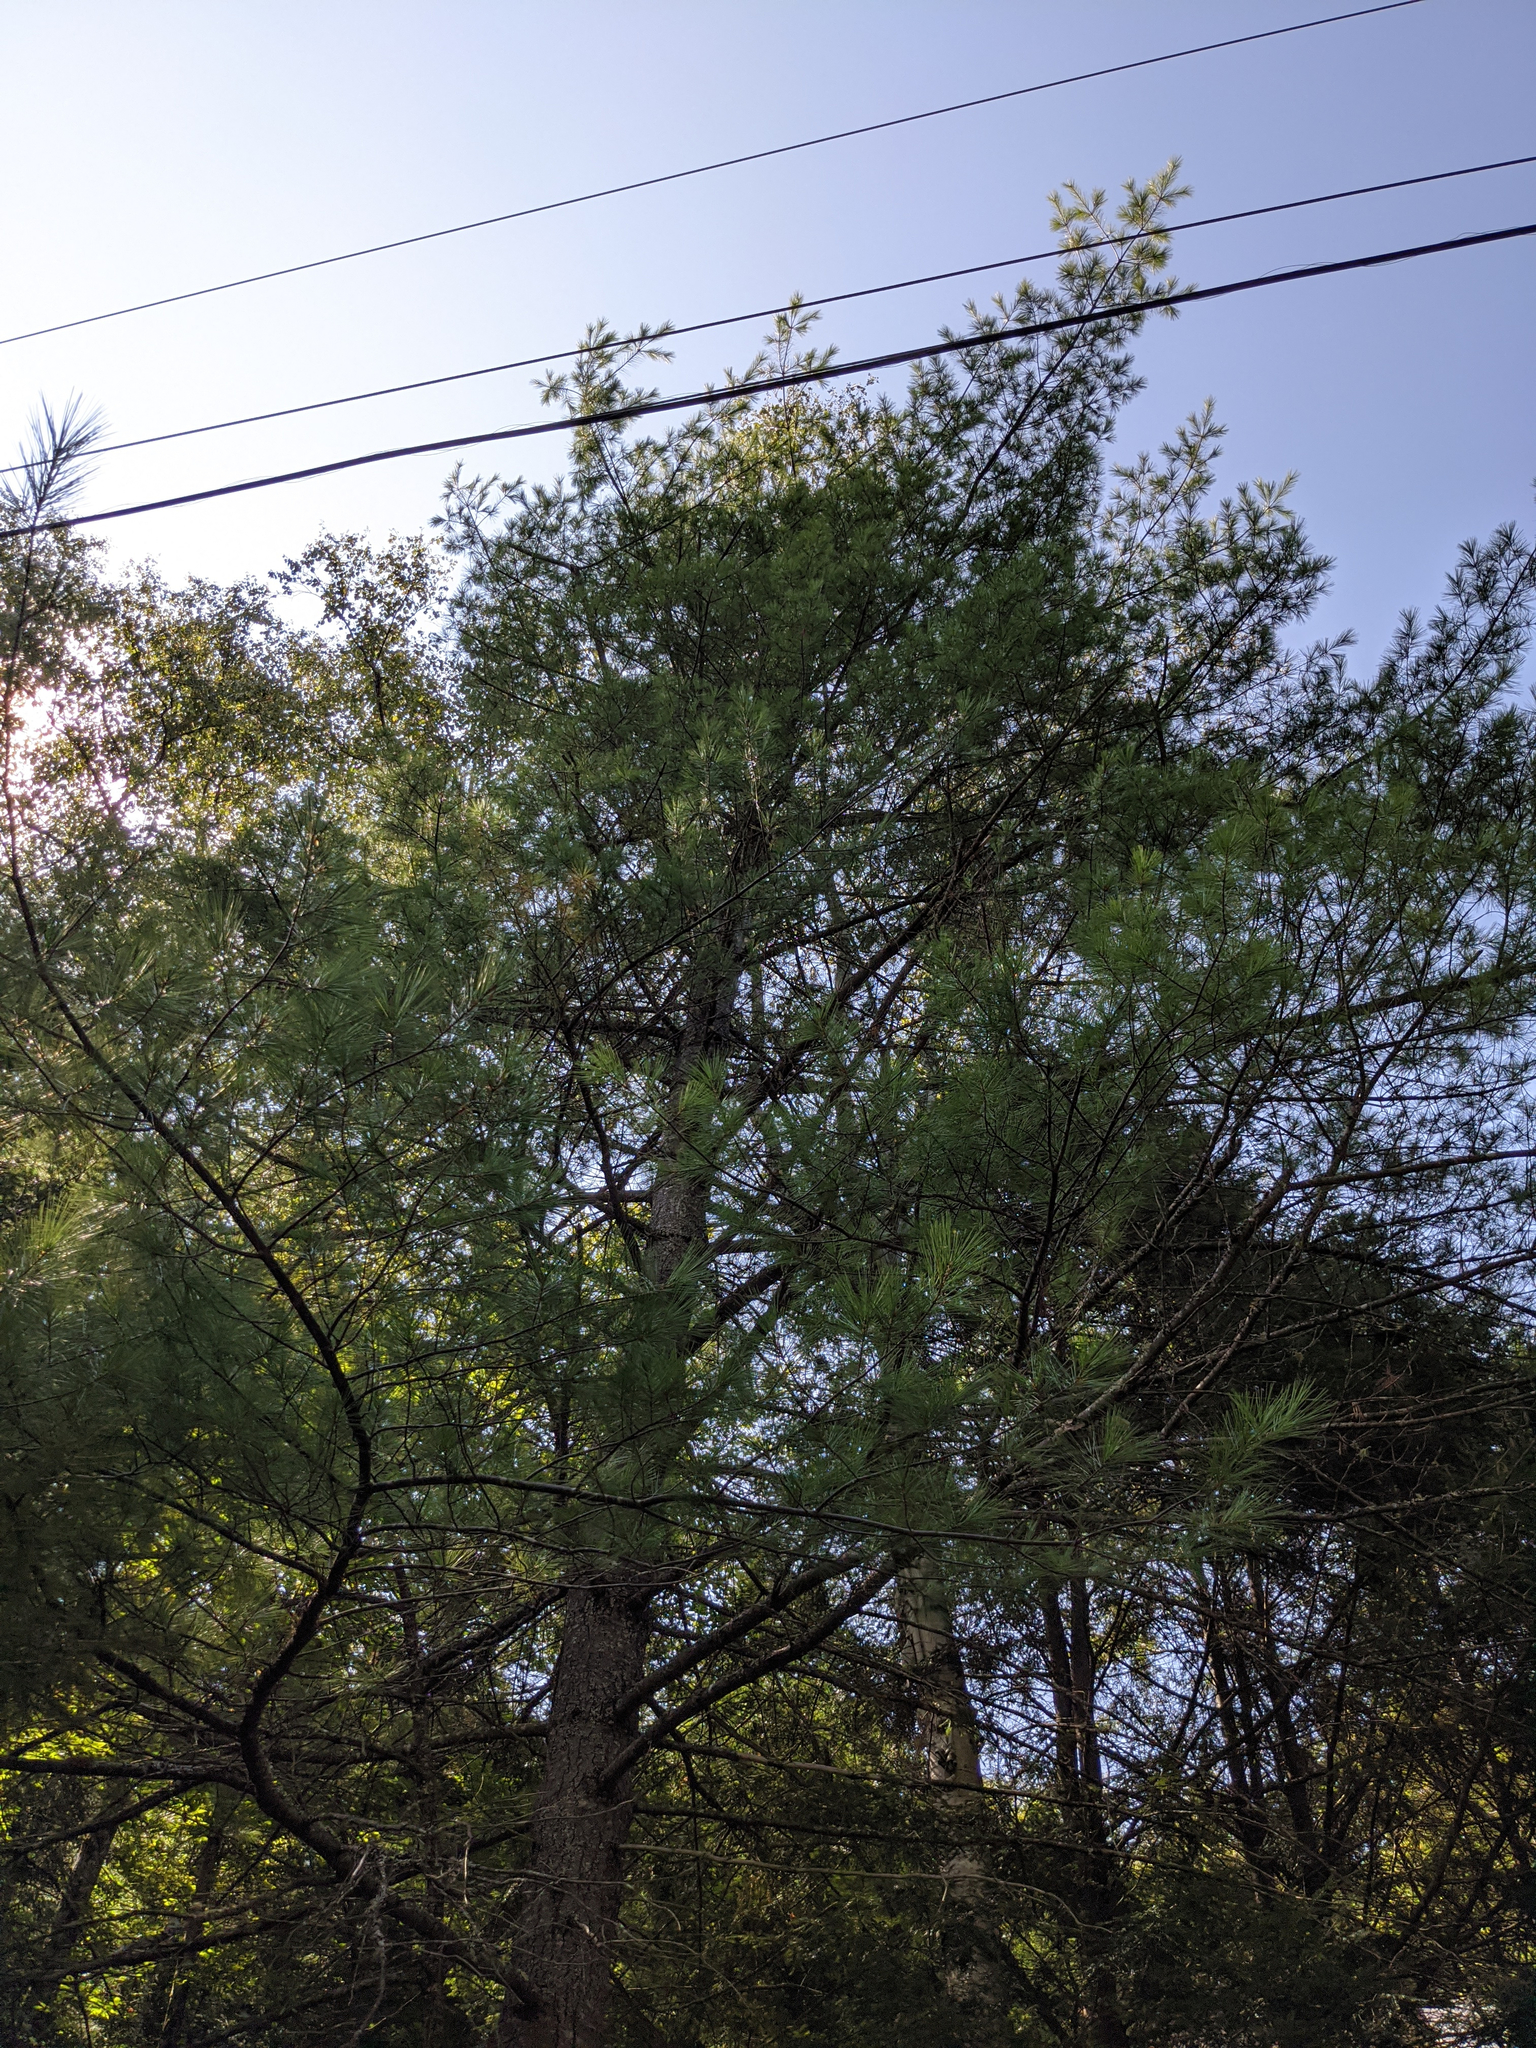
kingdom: Plantae
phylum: Tracheophyta
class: Pinopsida
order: Pinales
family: Pinaceae
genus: Pinus
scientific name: Pinus strobus
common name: Weymouth pine
